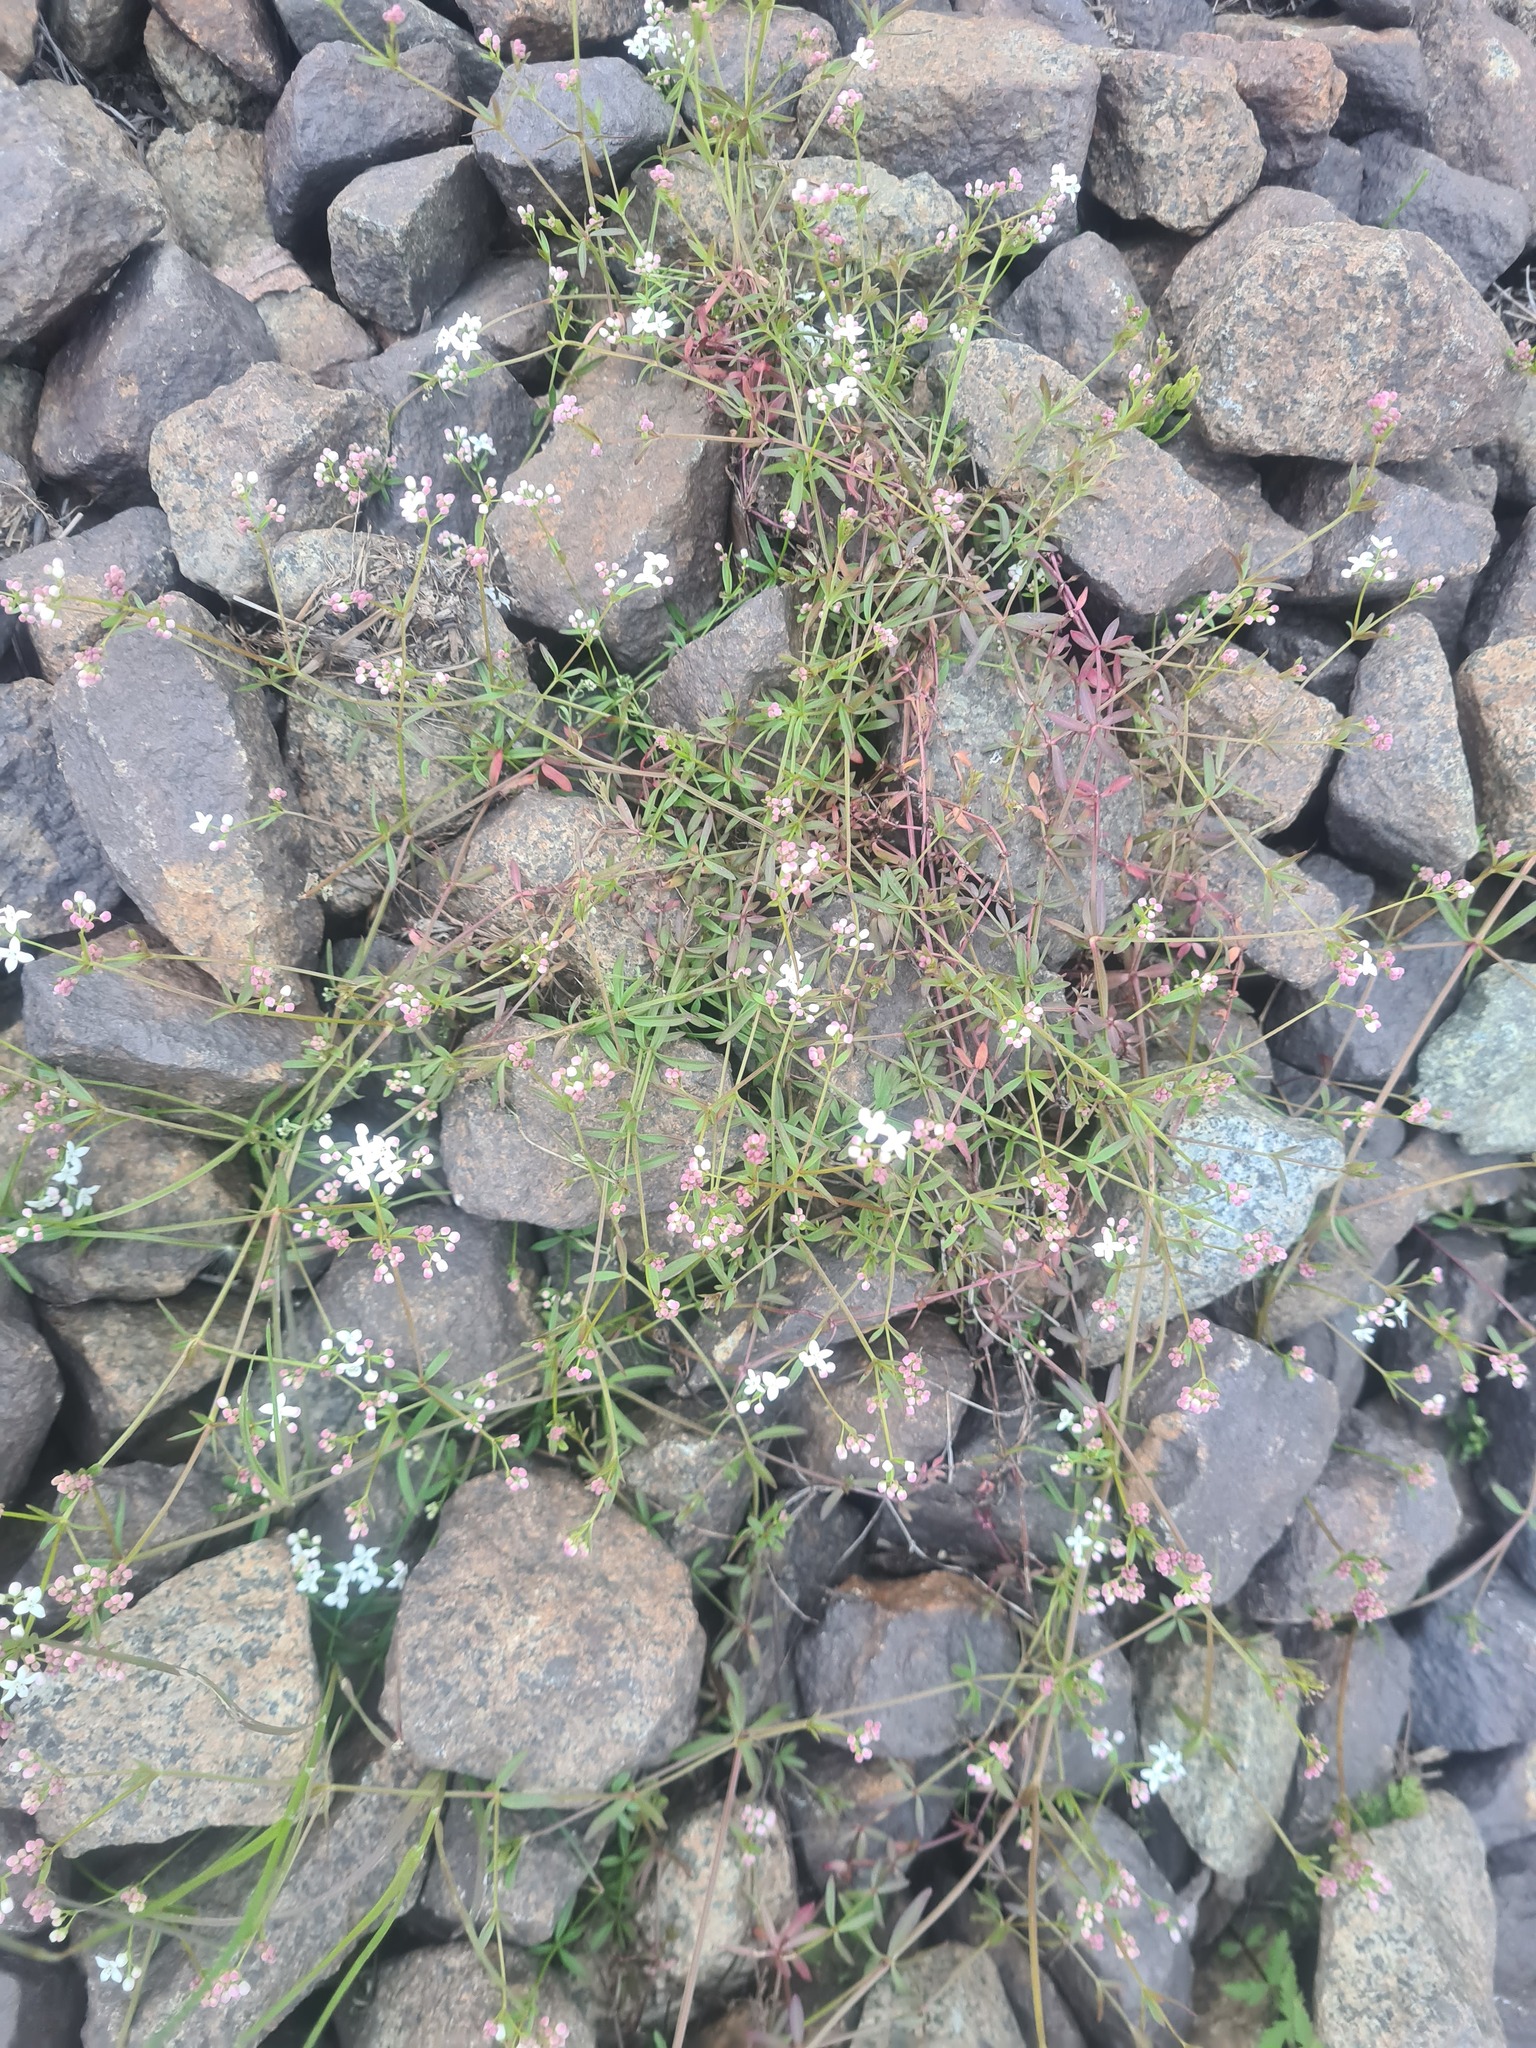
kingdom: Plantae
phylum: Tracheophyta
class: Magnoliopsida
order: Gentianales
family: Rubiaceae
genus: Galium
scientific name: Galium palustre
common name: Common marsh-bedstraw
